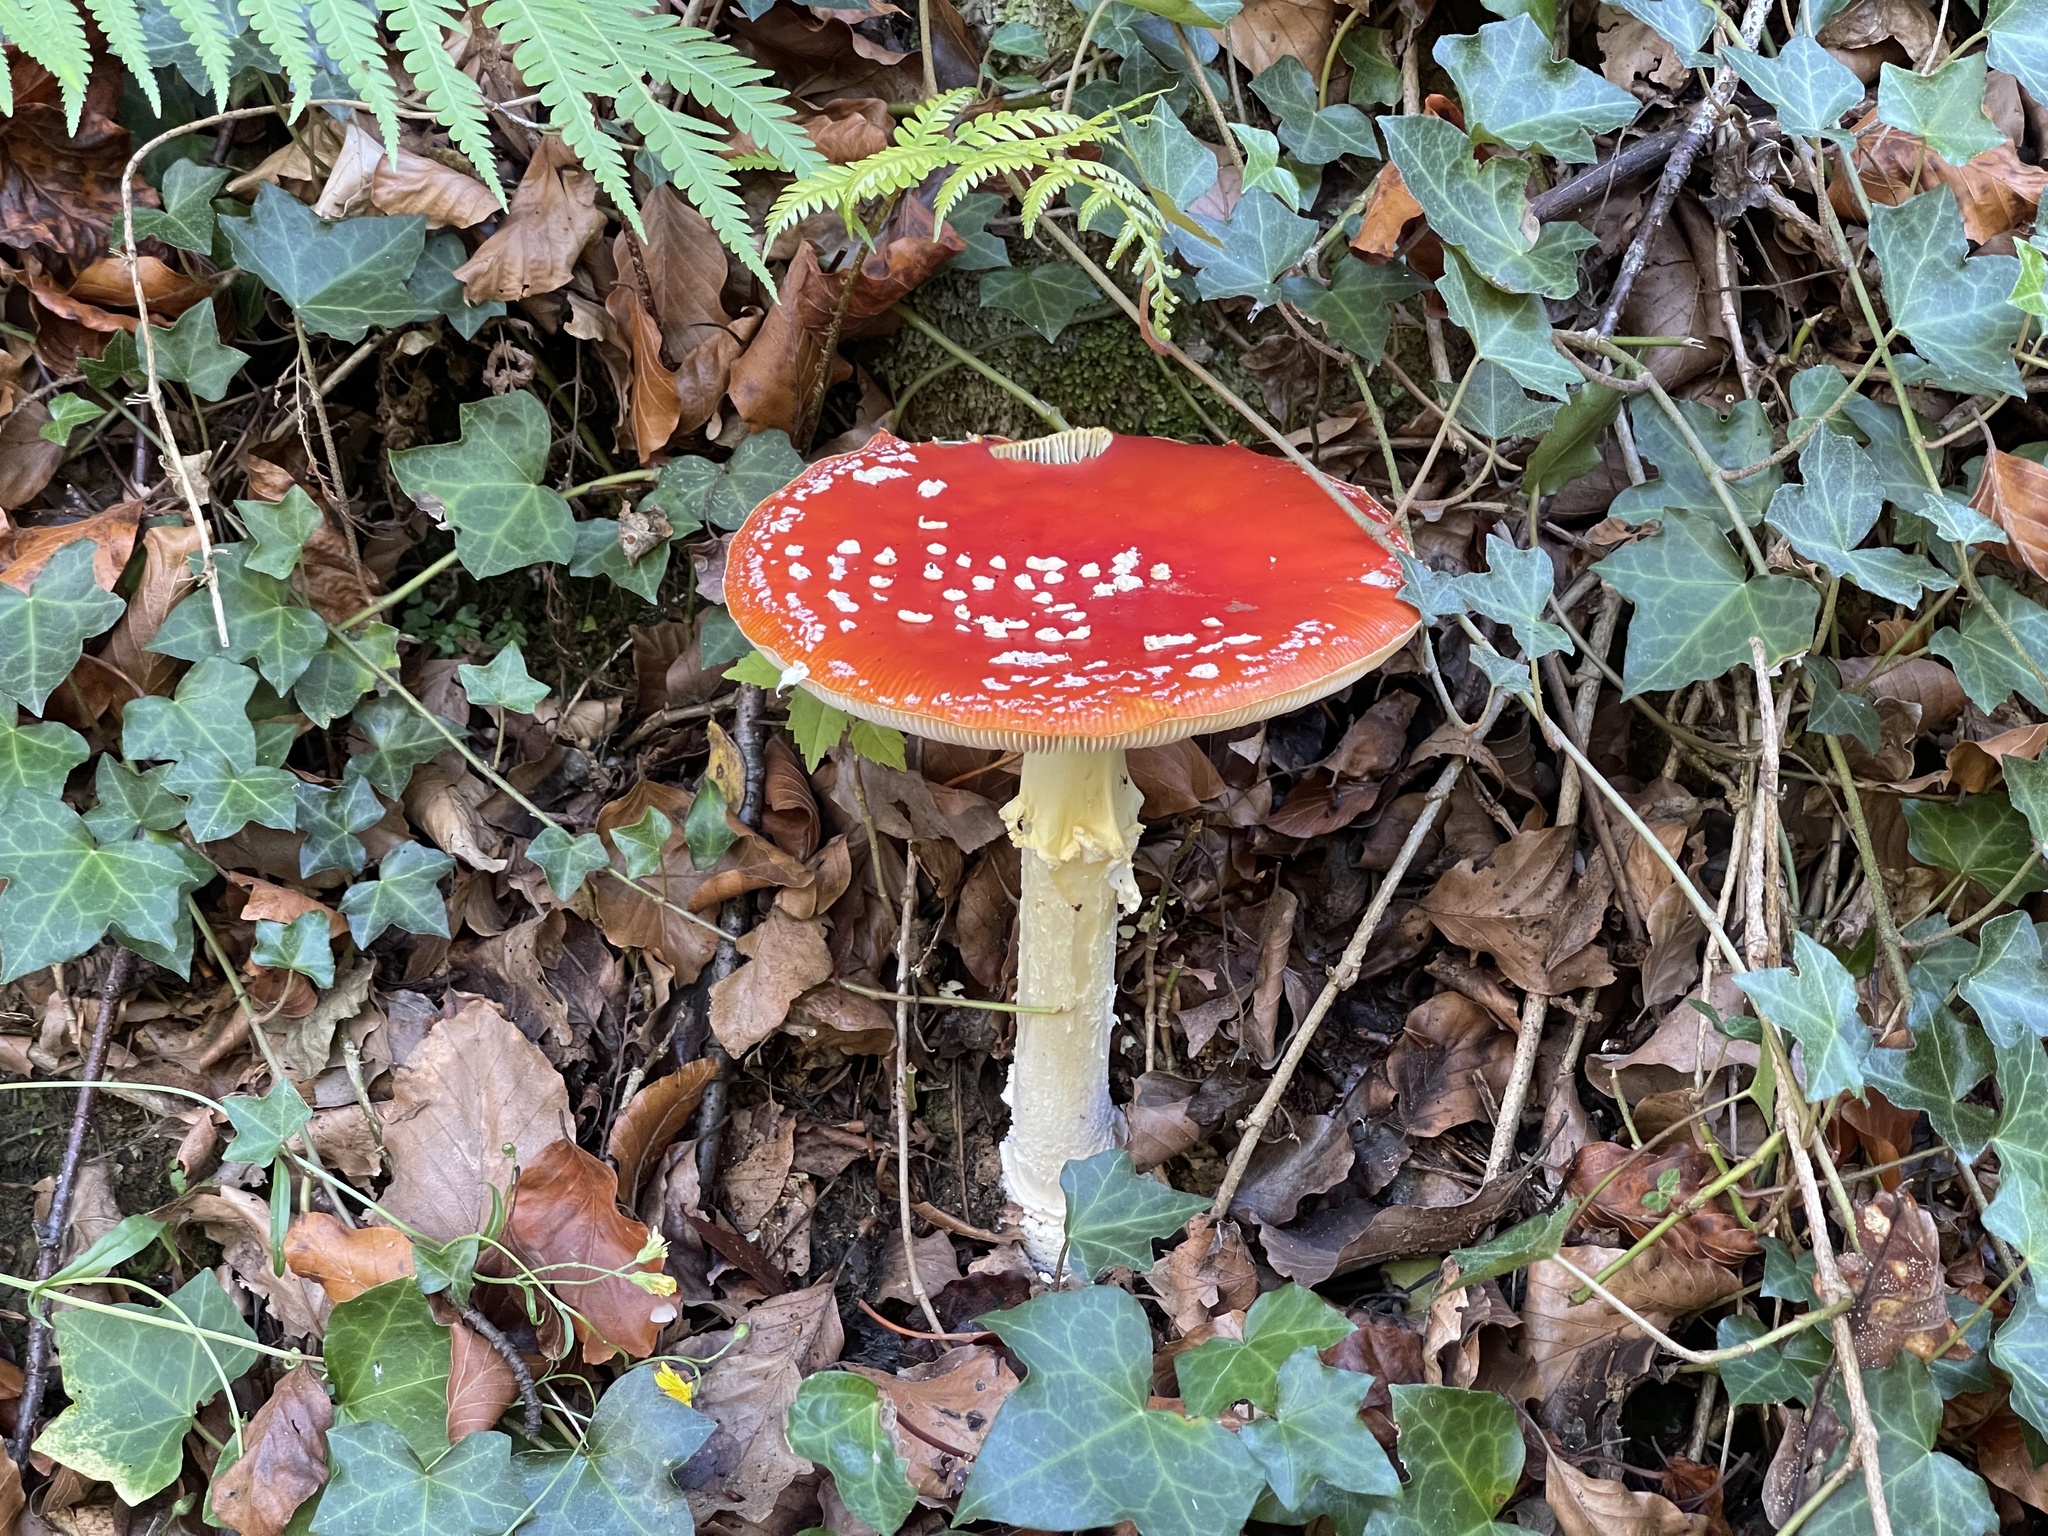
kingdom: Fungi
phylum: Basidiomycota
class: Agaricomycetes
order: Agaricales
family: Amanitaceae
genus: Amanita
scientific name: Amanita muscaria
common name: Fly agaric
